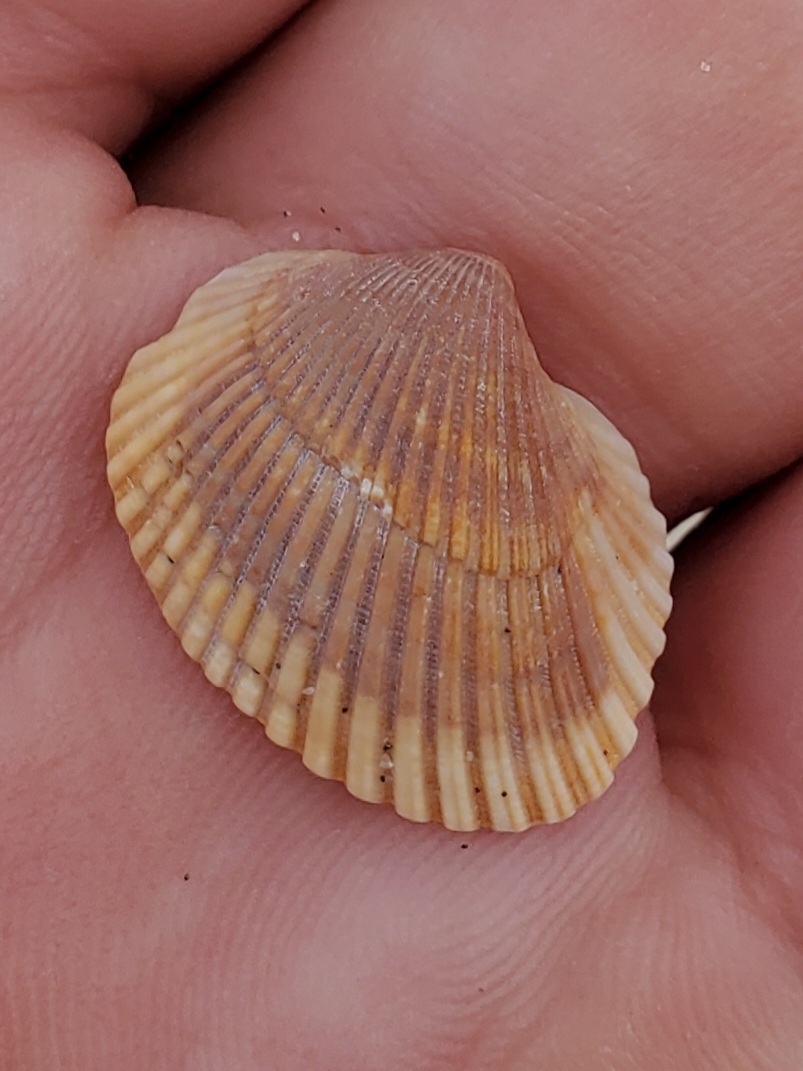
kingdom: Animalia
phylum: Mollusca
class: Bivalvia
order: Arcida
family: Noetiidae
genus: Noetia
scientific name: Noetia ponderosa
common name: Ponderous ark
